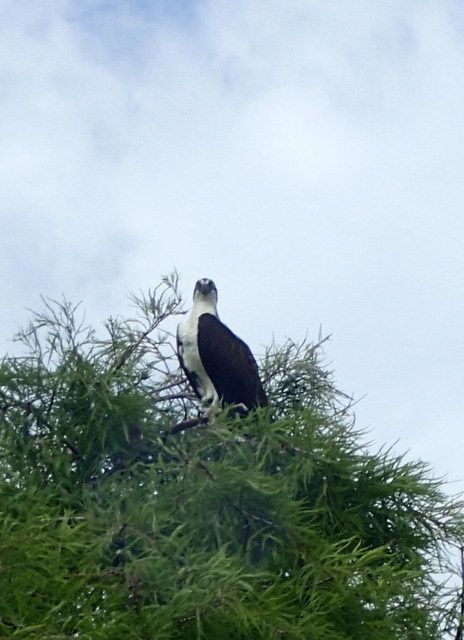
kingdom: Animalia
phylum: Chordata
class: Aves
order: Accipitriformes
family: Pandionidae
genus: Pandion
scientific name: Pandion haliaetus
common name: Osprey
